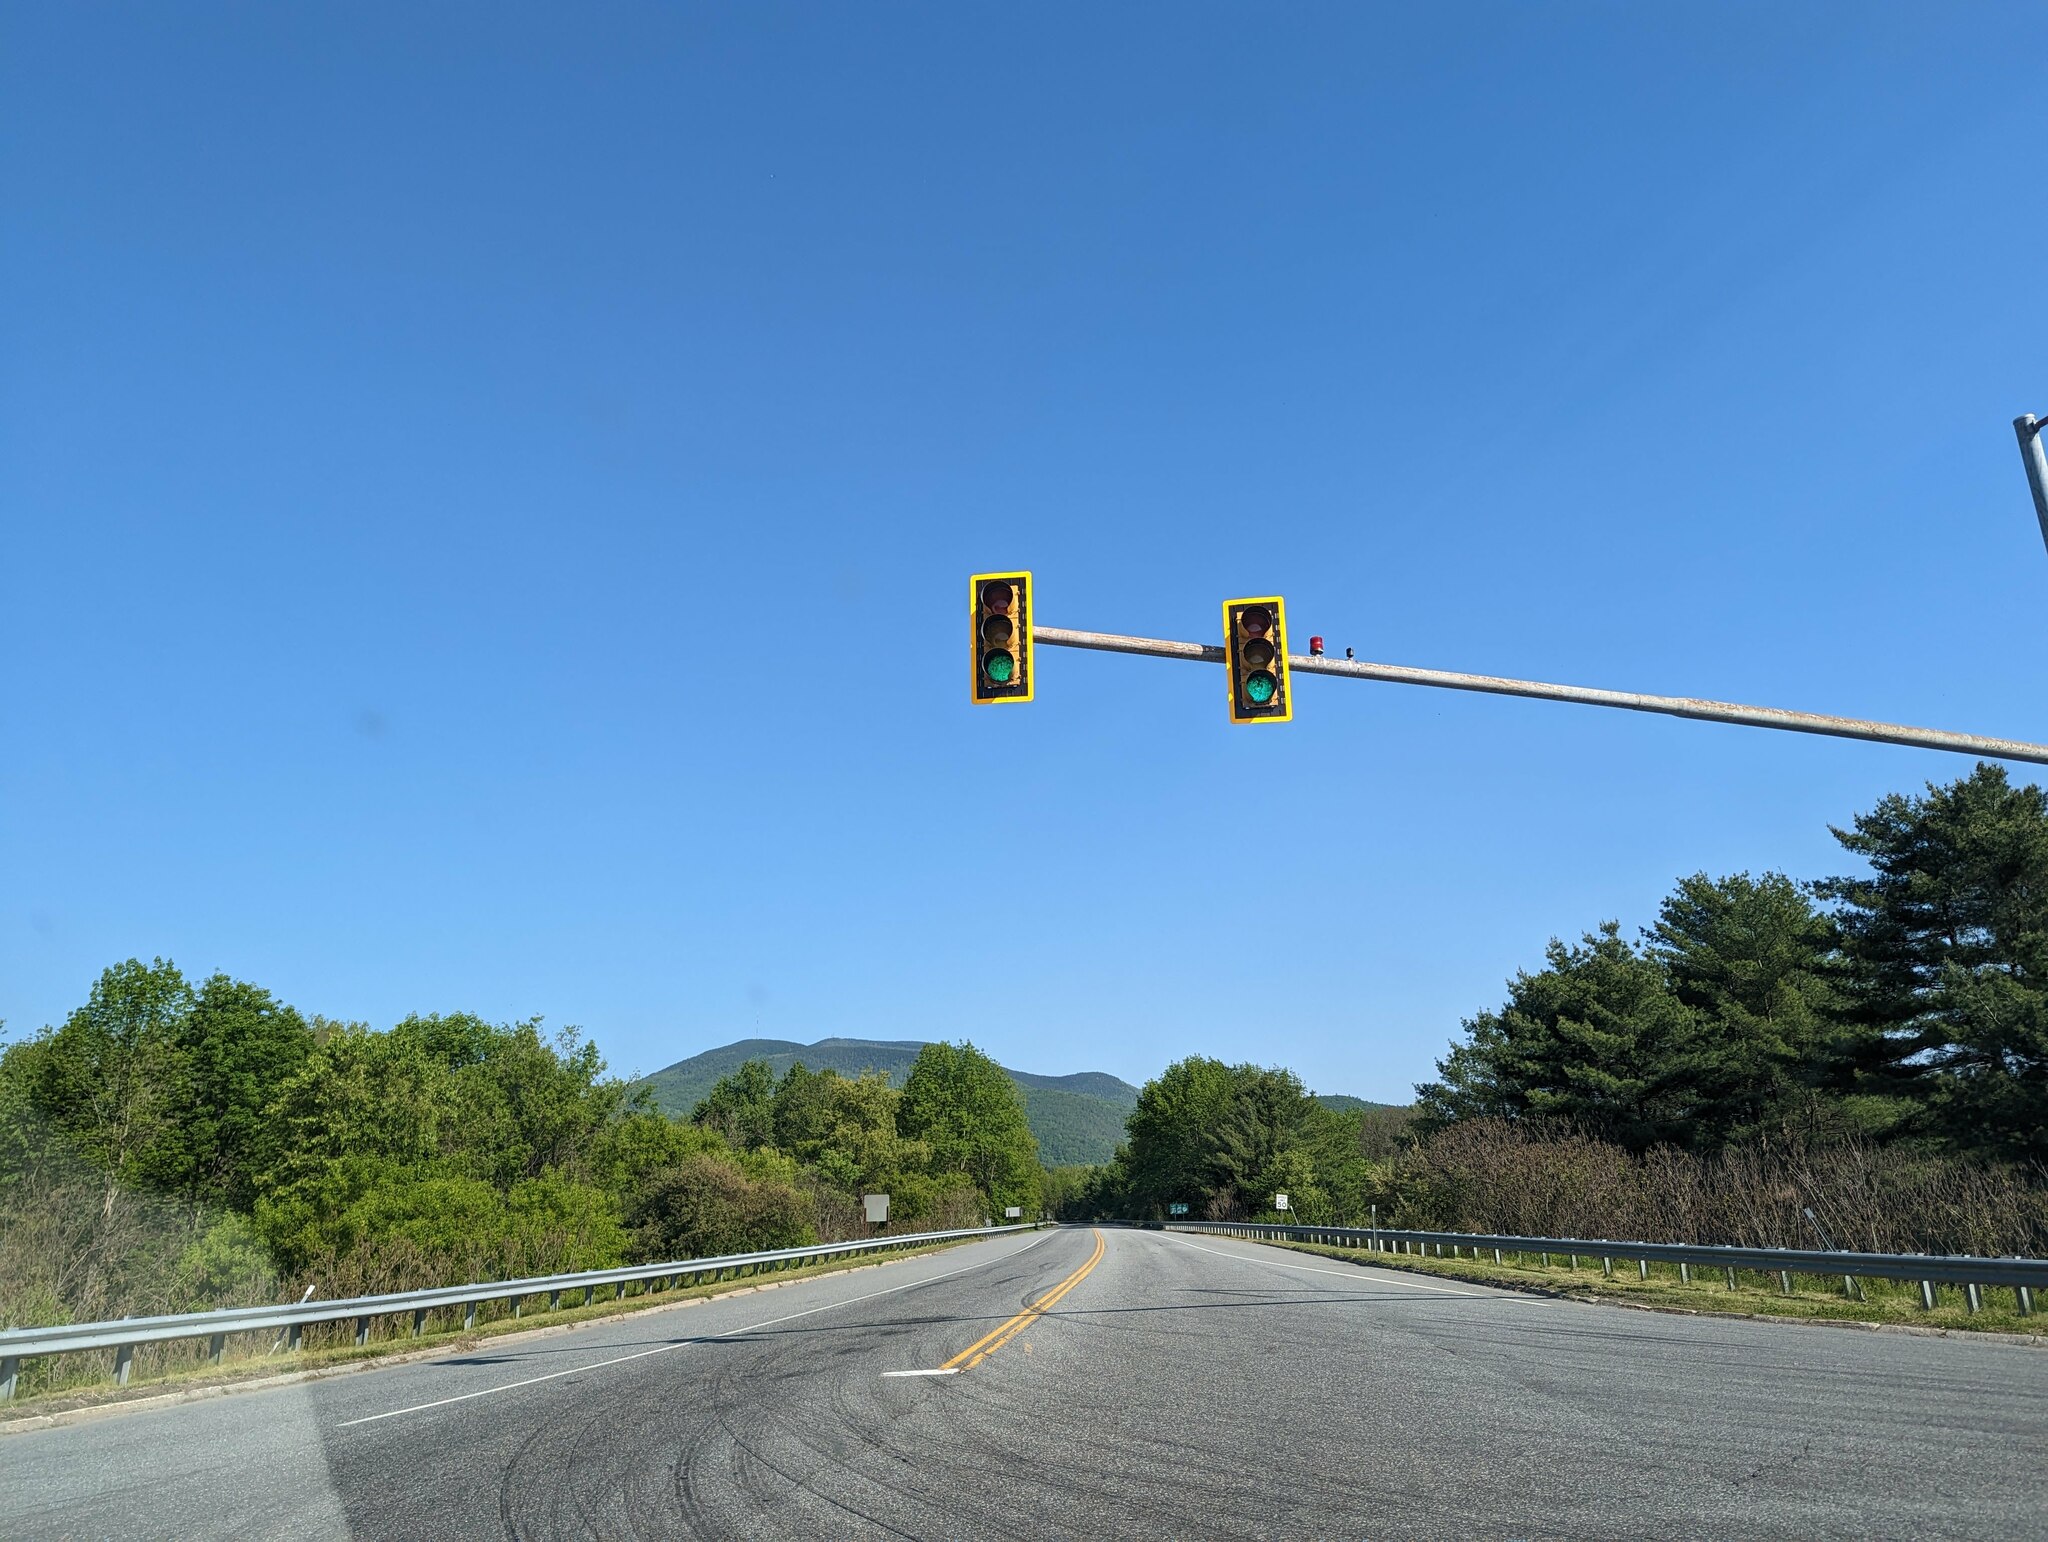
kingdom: Plantae
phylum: Tracheophyta
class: Pinopsida
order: Pinales
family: Pinaceae
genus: Pinus
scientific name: Pinus strobus
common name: Weymouth pine
